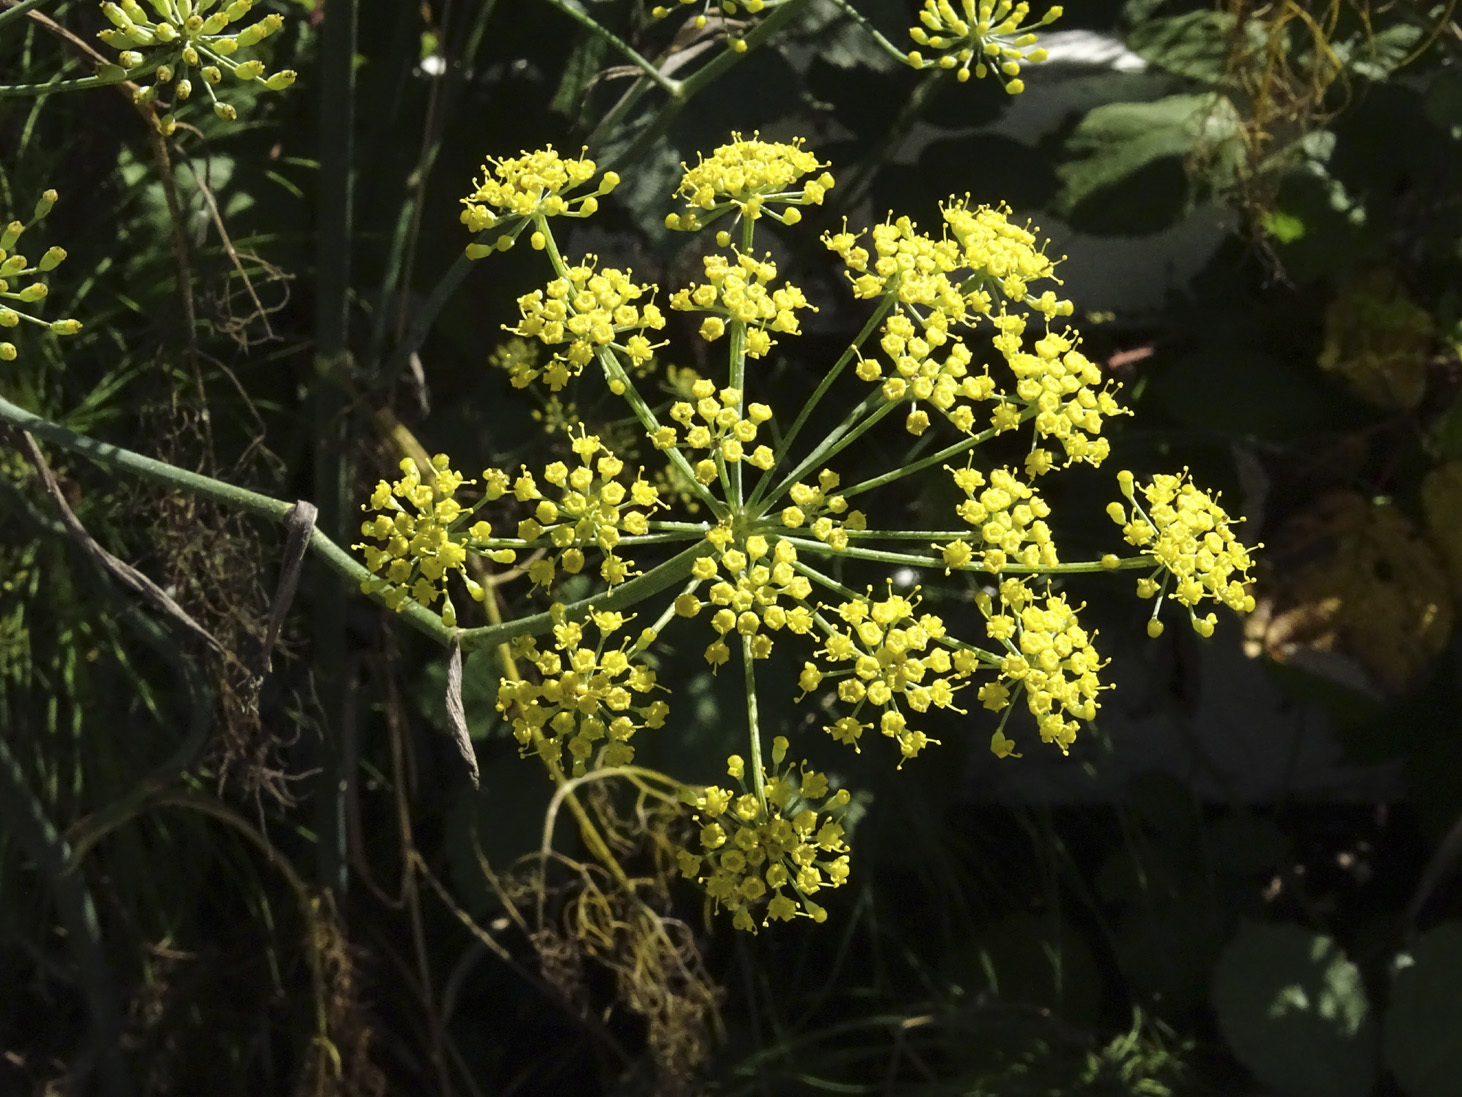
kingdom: Plantae
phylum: Tracheophyta
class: Magnoliopsida
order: Apiales
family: Apiaceae
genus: Foeniculum
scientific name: Foeniculum vulgare
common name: Fennel
